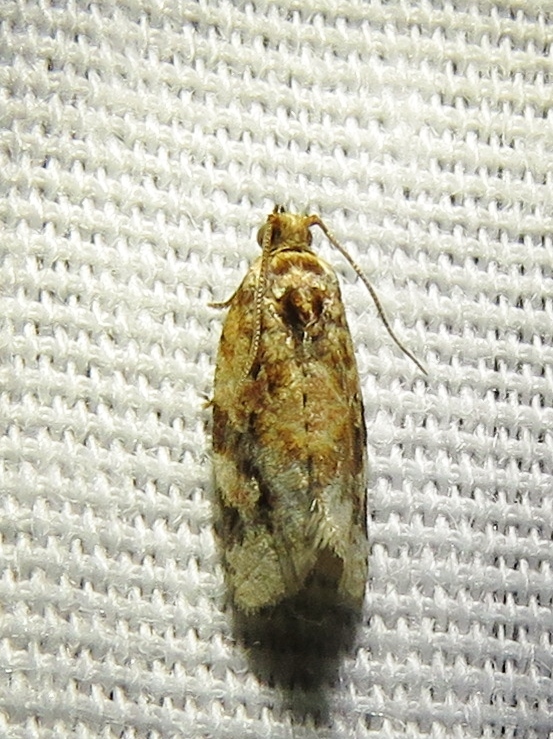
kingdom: Animalia
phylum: Arthropoda
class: Insecta
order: Lepidoptera
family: Tortricidae
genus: Argyrotaenia
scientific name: Argyrotaenia velutinana
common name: Red-banded leafroller moth
